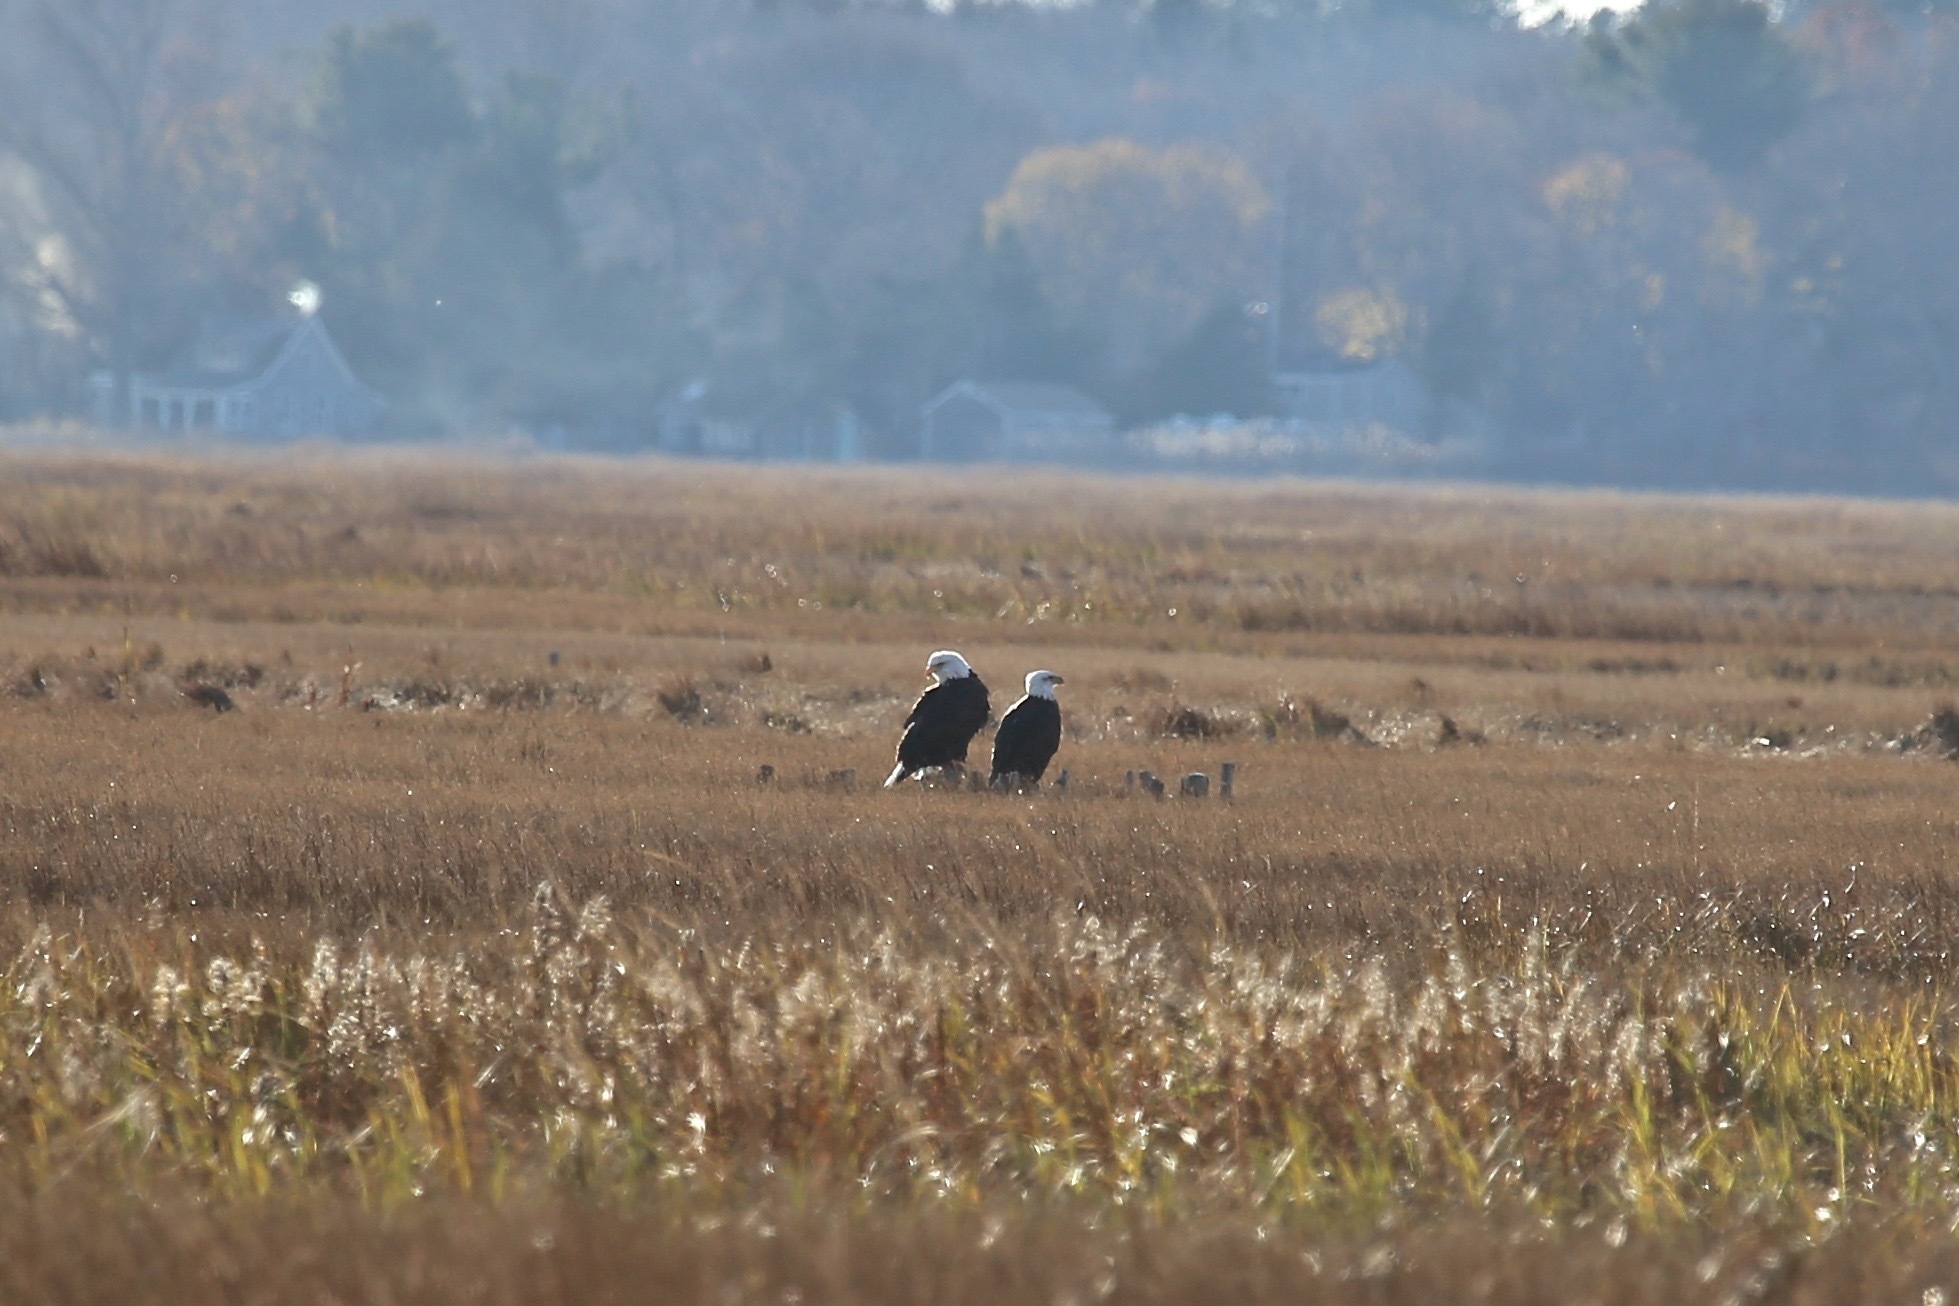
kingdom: Animalia
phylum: Chordata
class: Aves
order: Accipitriformes
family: Accipitridae
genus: Haliaeetus
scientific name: Haliaeetus leucocephalus
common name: Bald eagle
